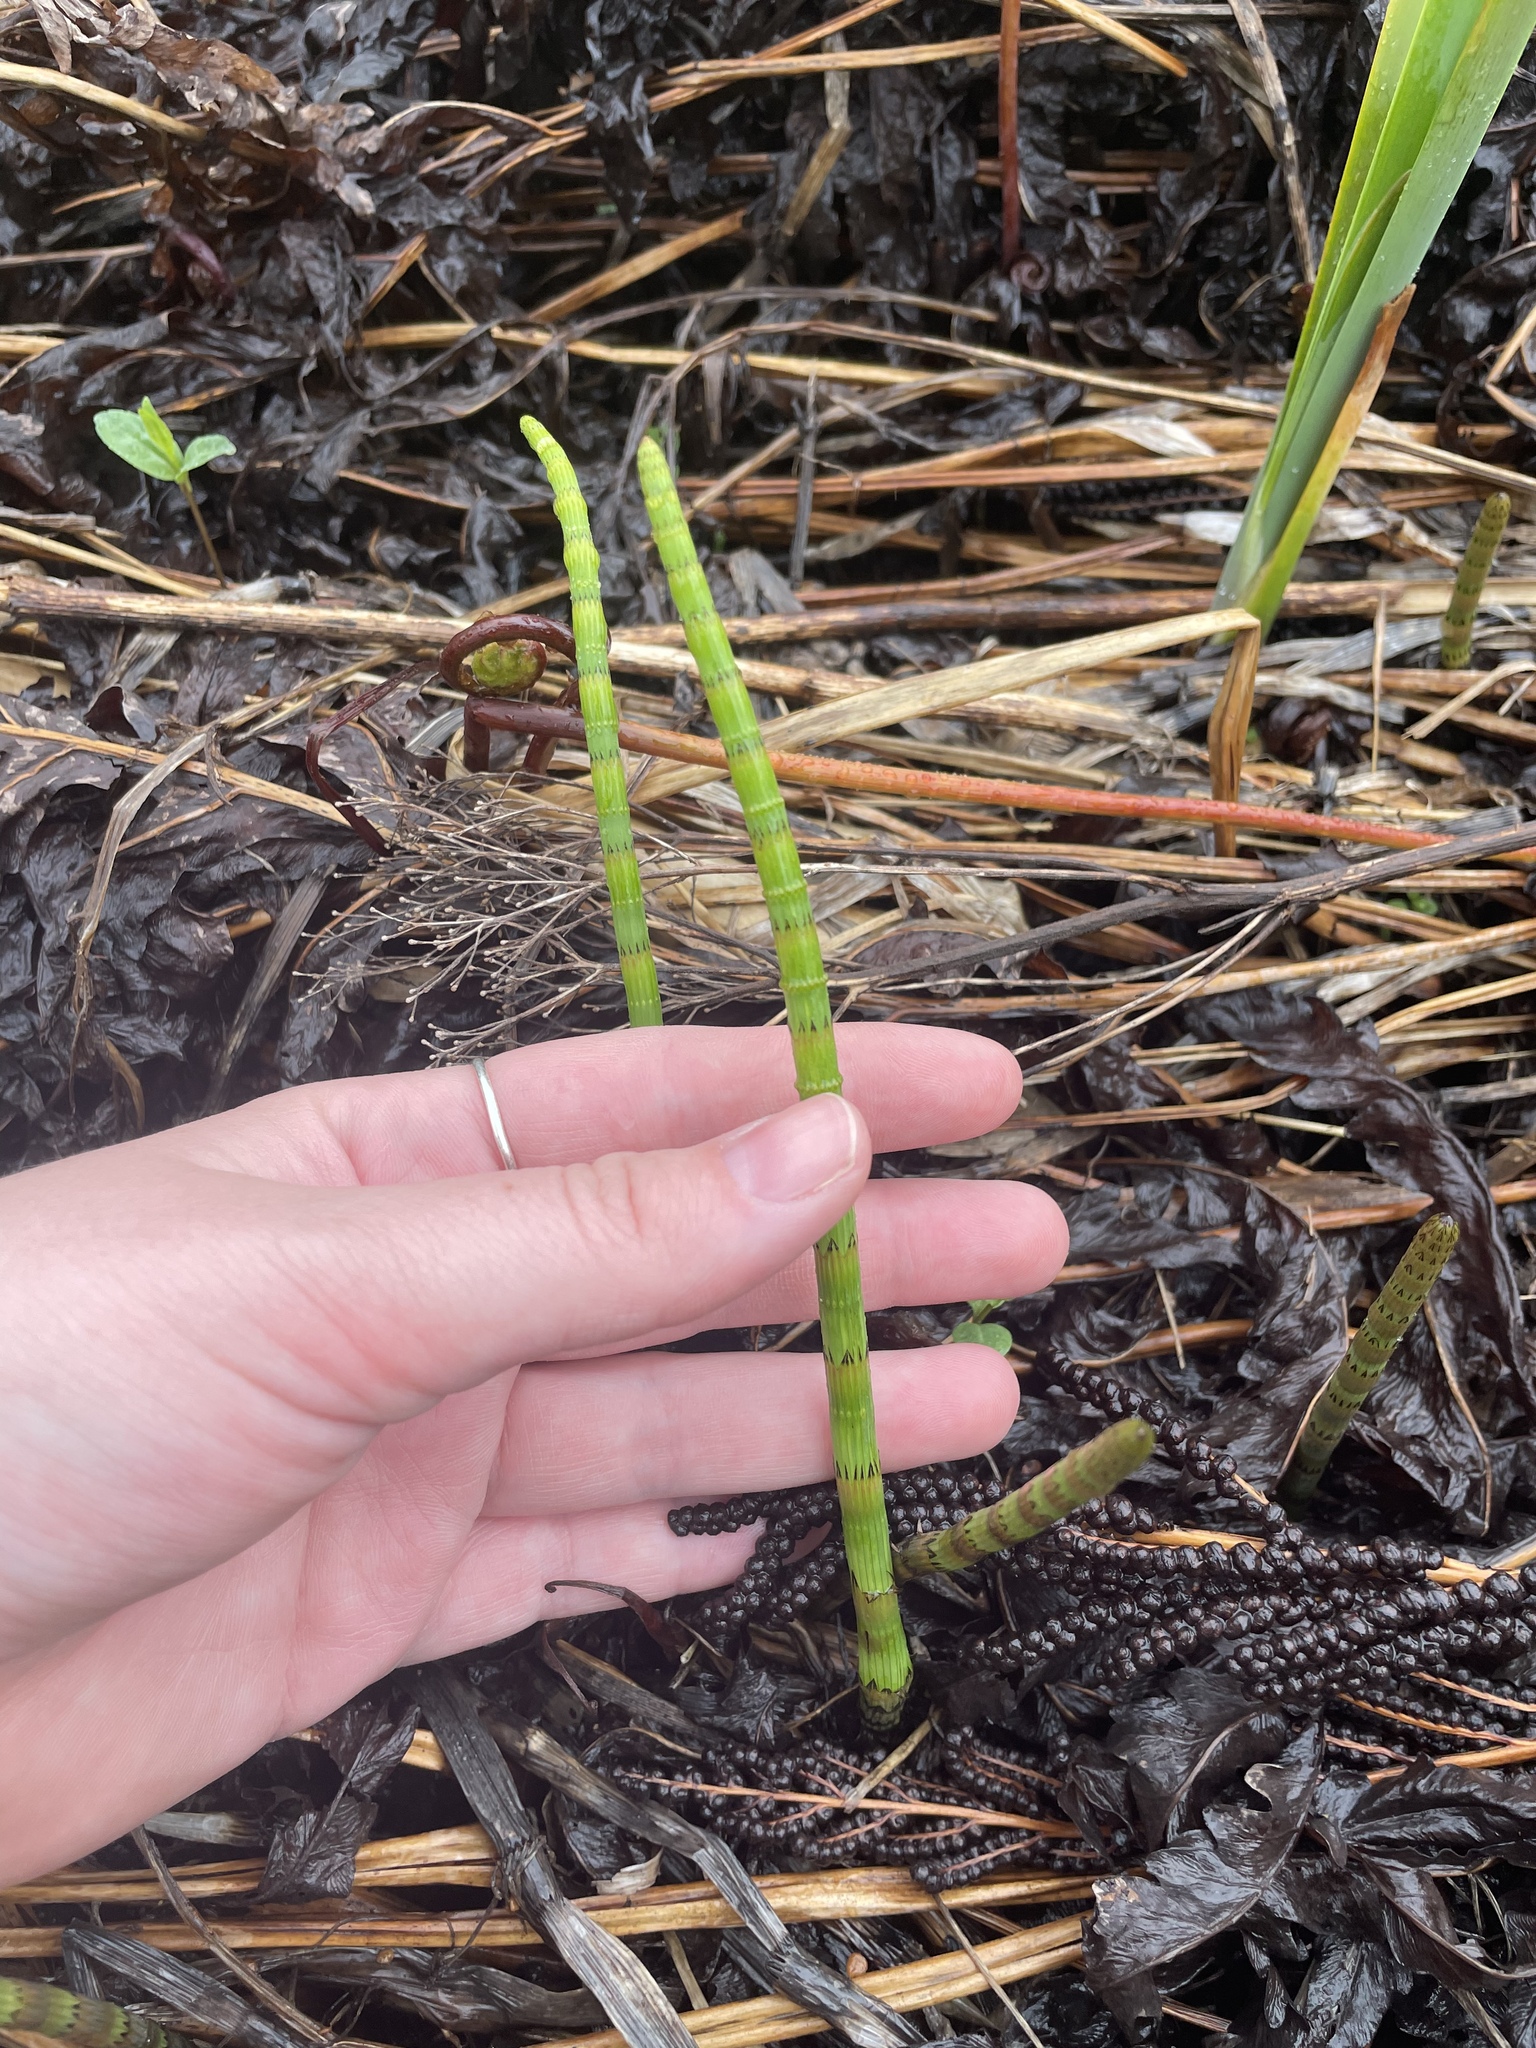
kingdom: Plantae
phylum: Tracheophyta
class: Polypodiopsida
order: Equisetales
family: Equisetaceae
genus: Equisetum
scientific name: Equisetum fluviatile
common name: Water horsetail
